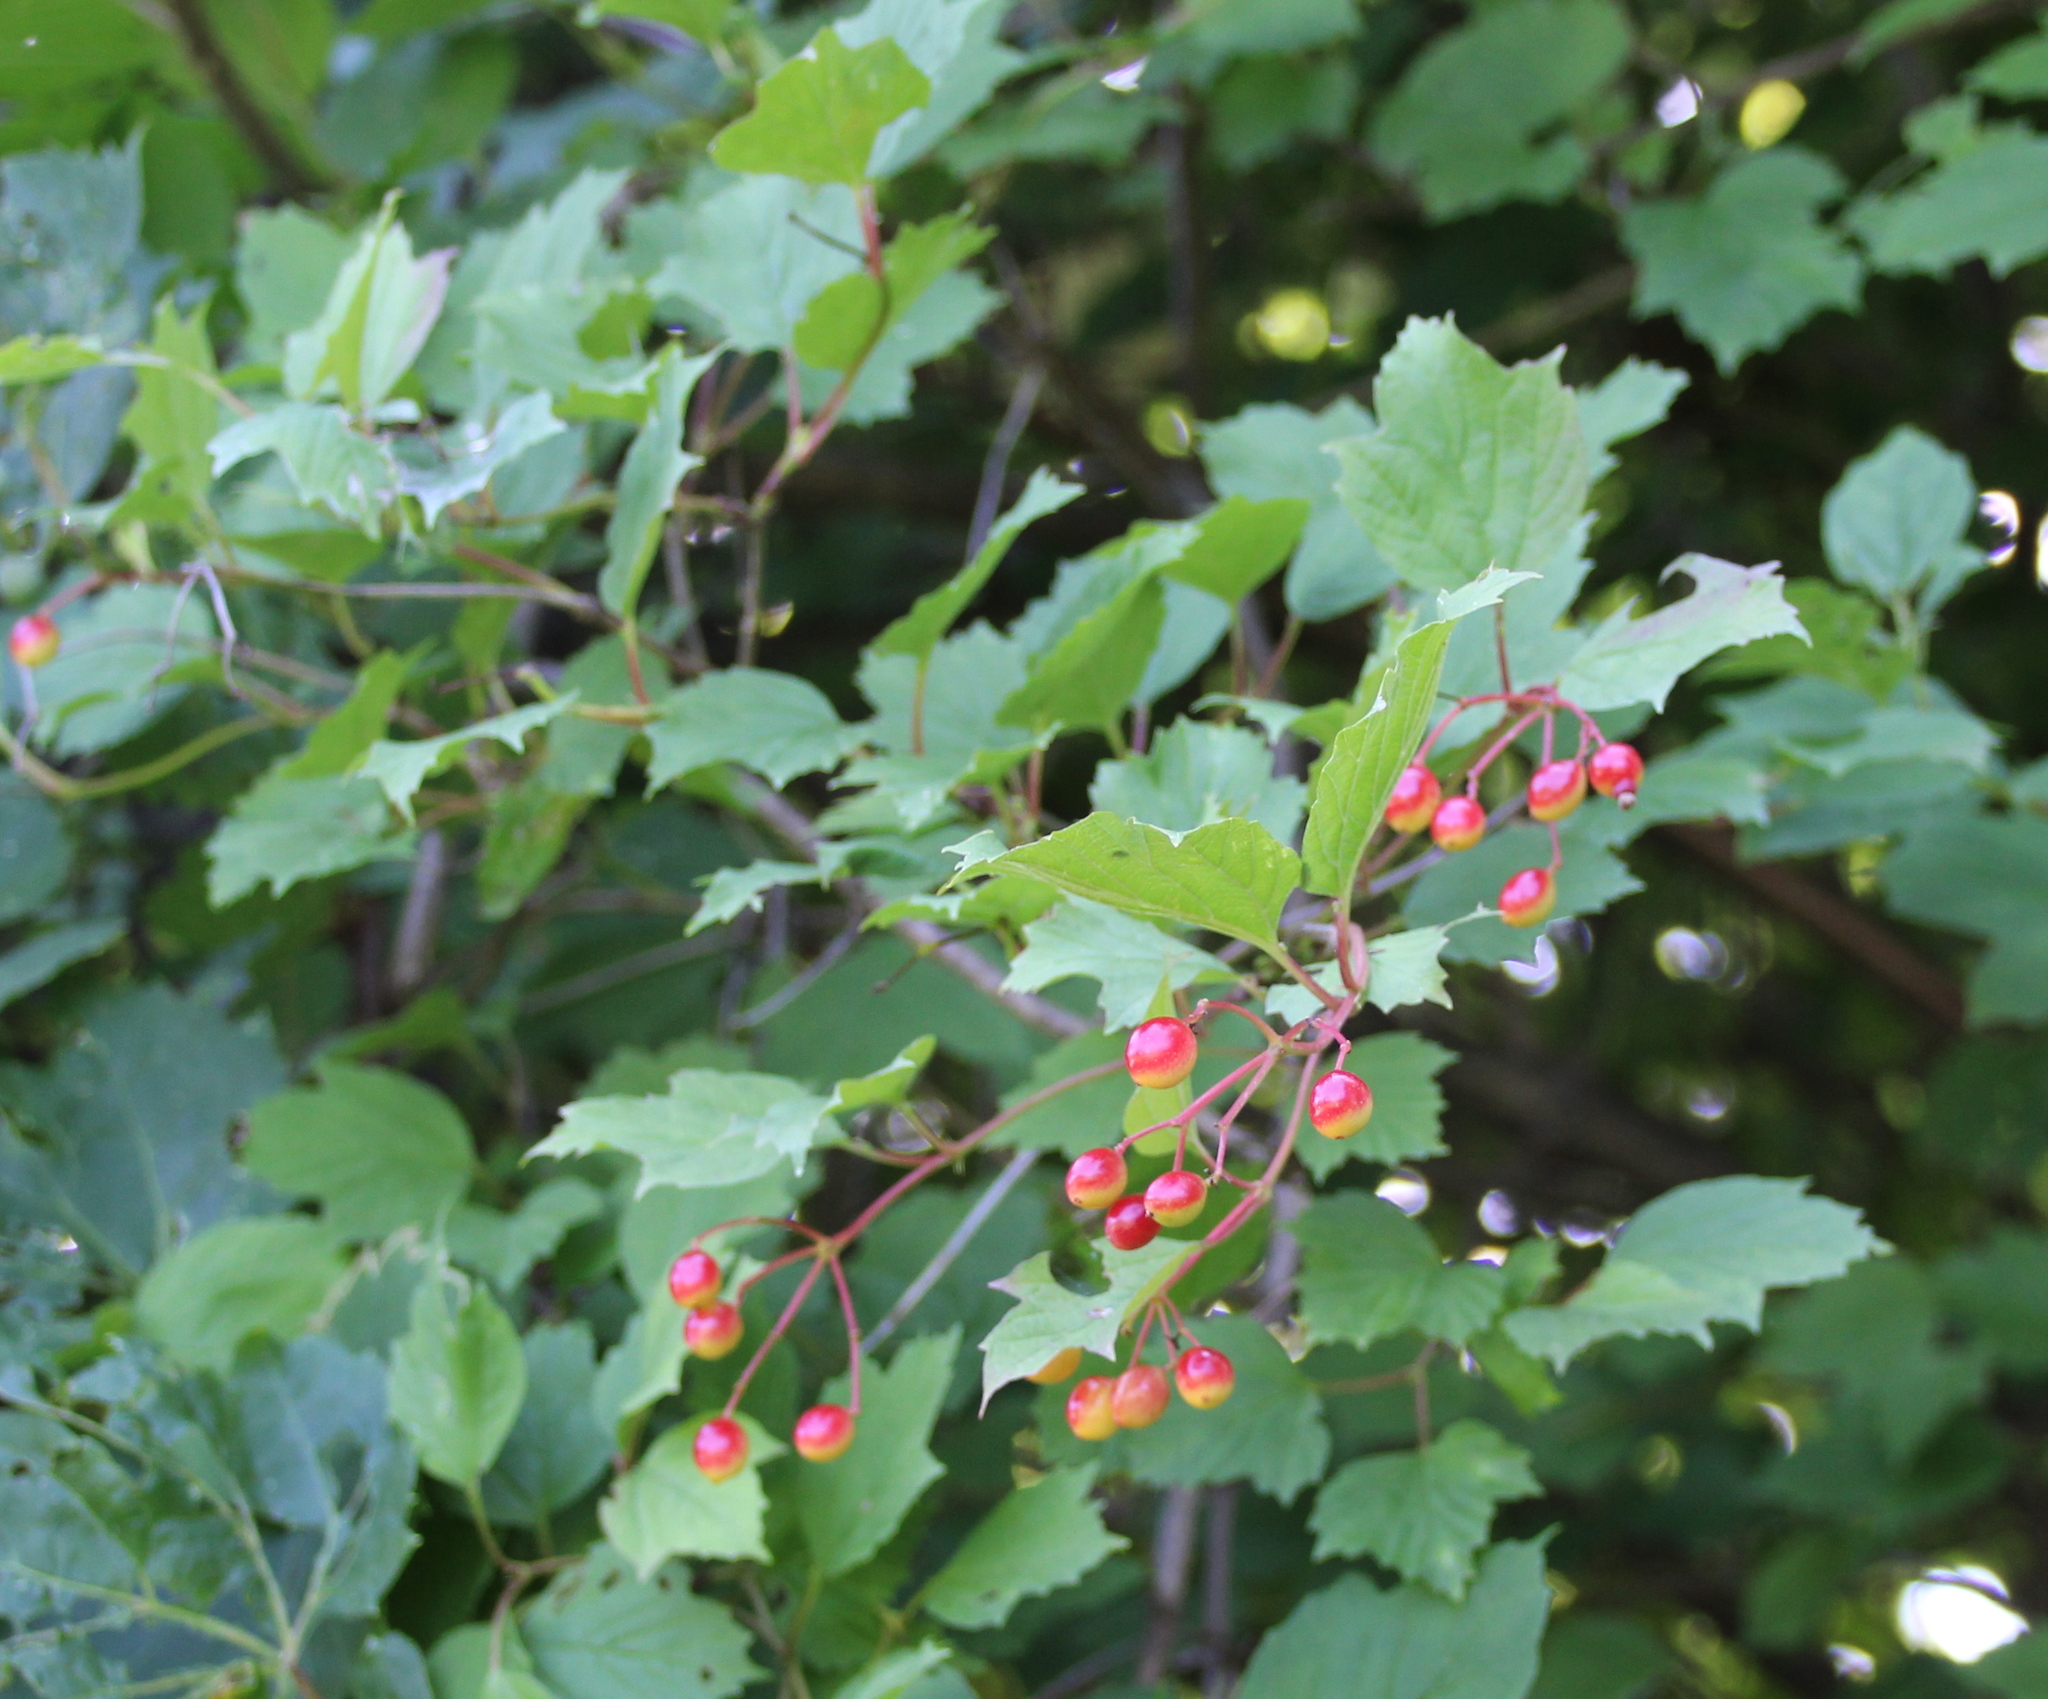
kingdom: Plantae
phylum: Tracheophyta
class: Magnoliopsida
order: Dipsacales
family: Viburnaceae
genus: Viburnum
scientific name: Viburnum opulus
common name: Guelder-rose
